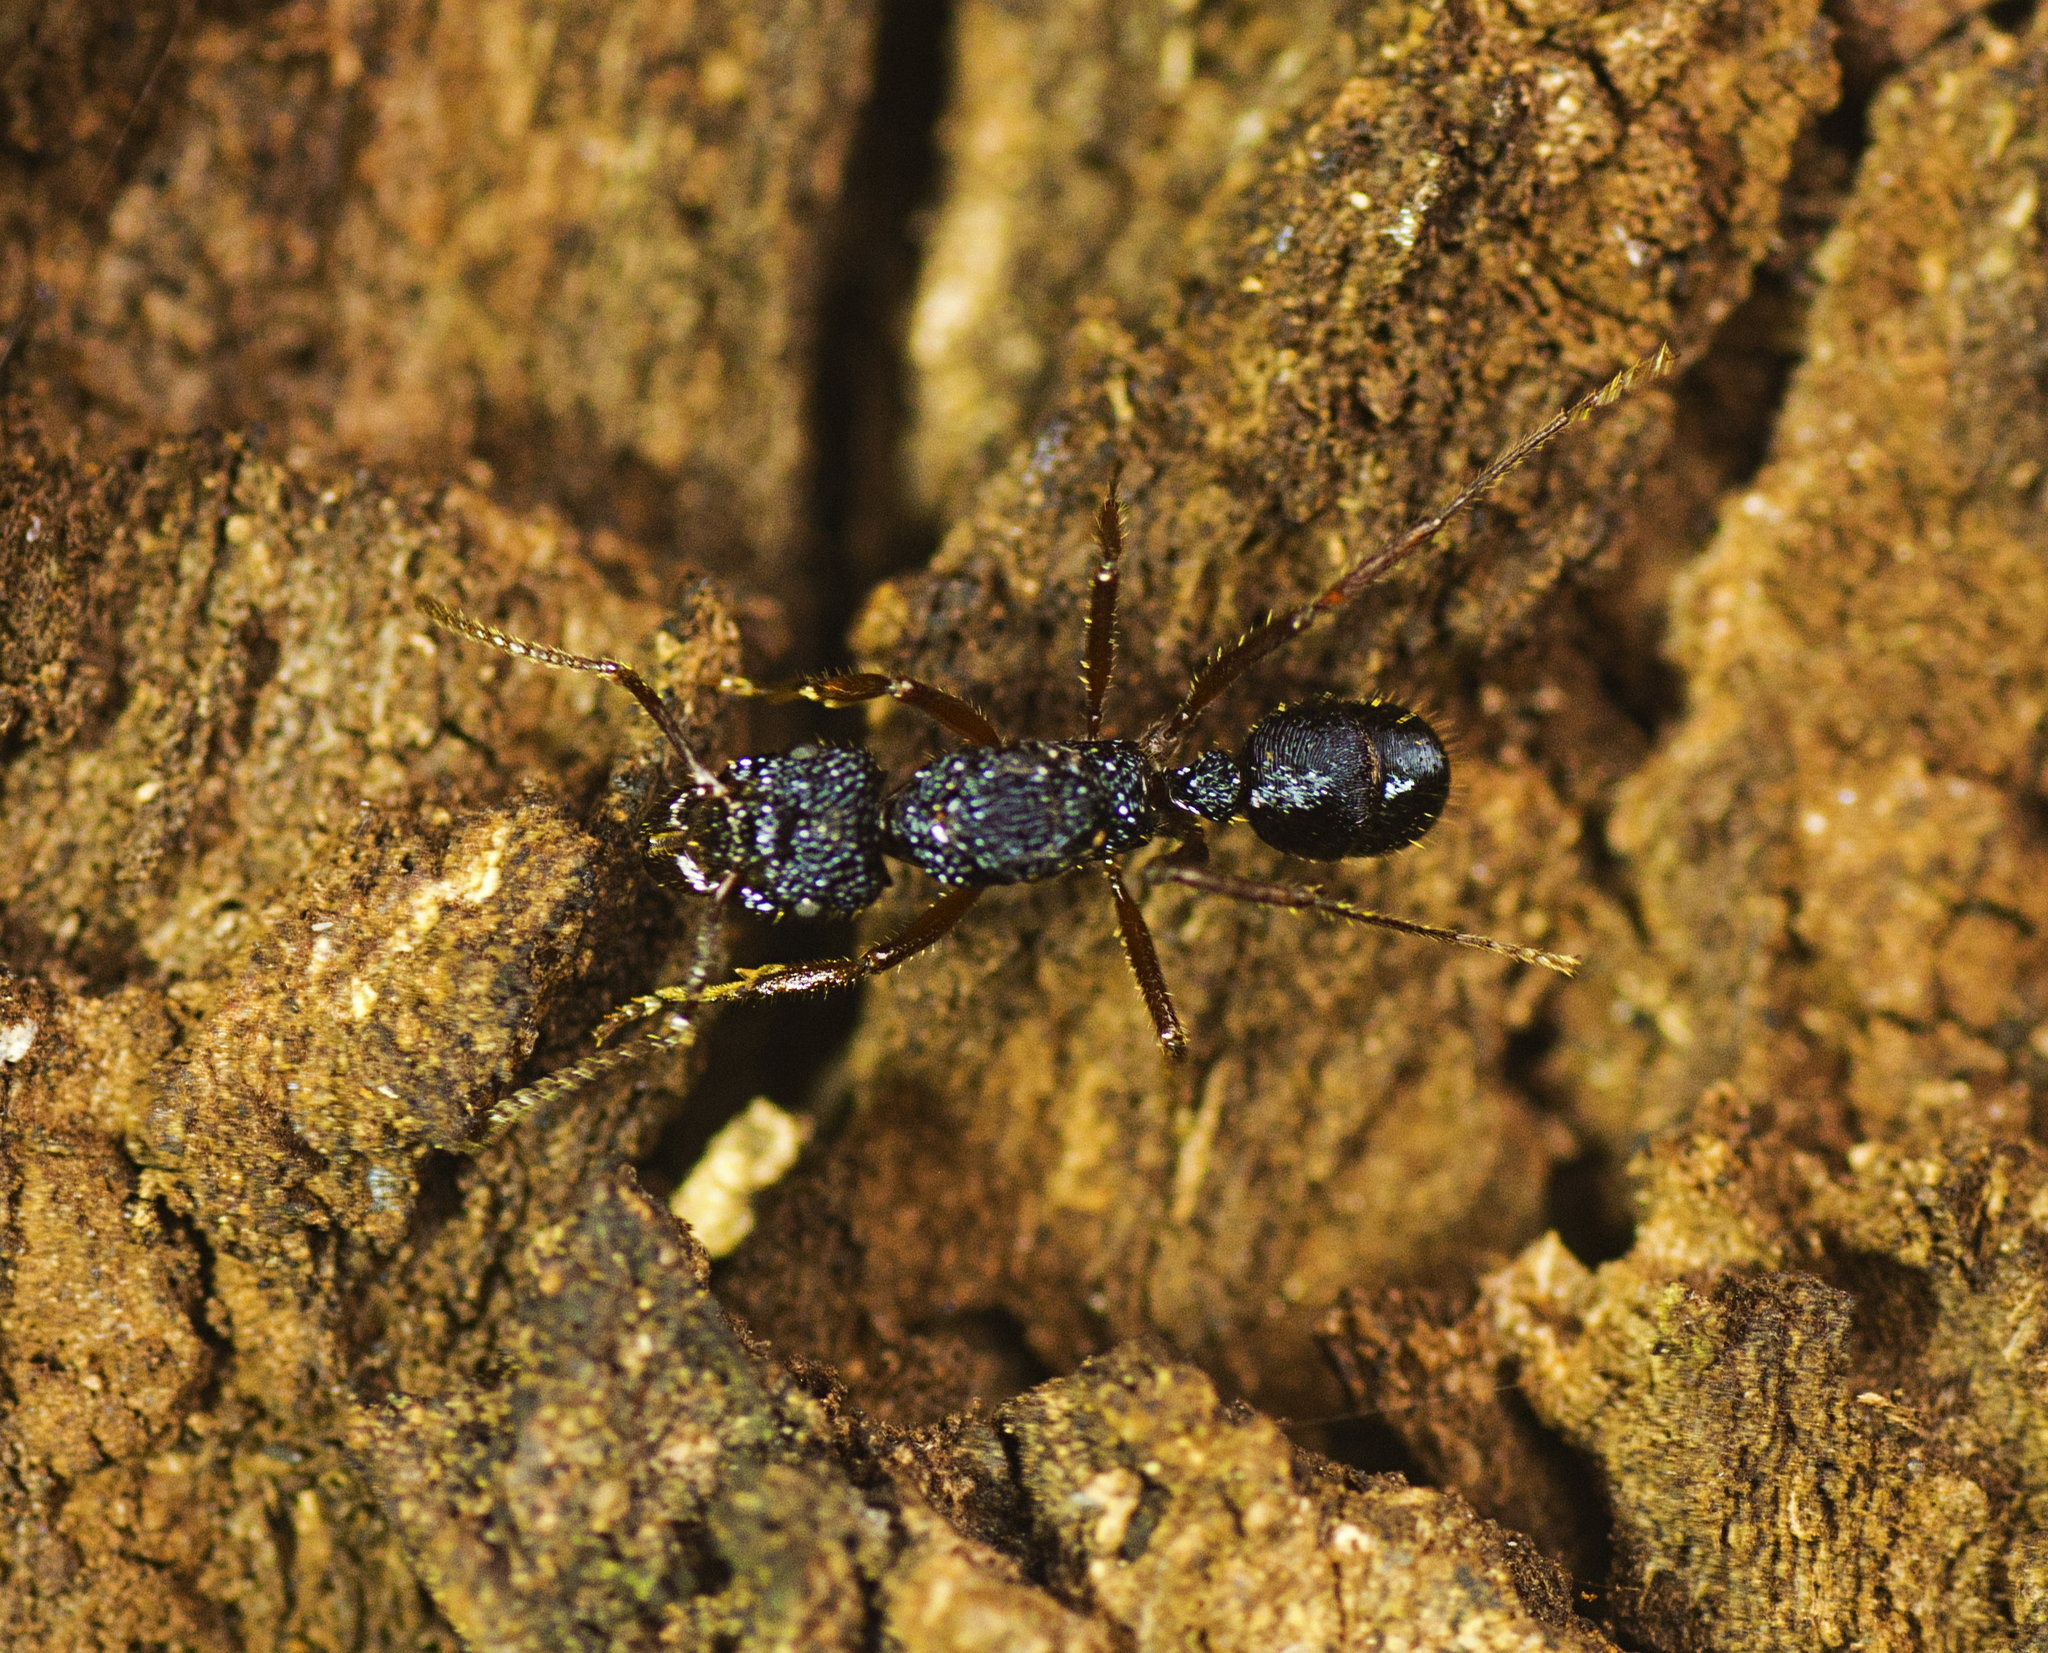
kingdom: Animalia
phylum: Arthropoda
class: Insecta
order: Hymenoptera
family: Formicidae
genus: Rhytidoponera
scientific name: Rhytidoponera chalybaea
